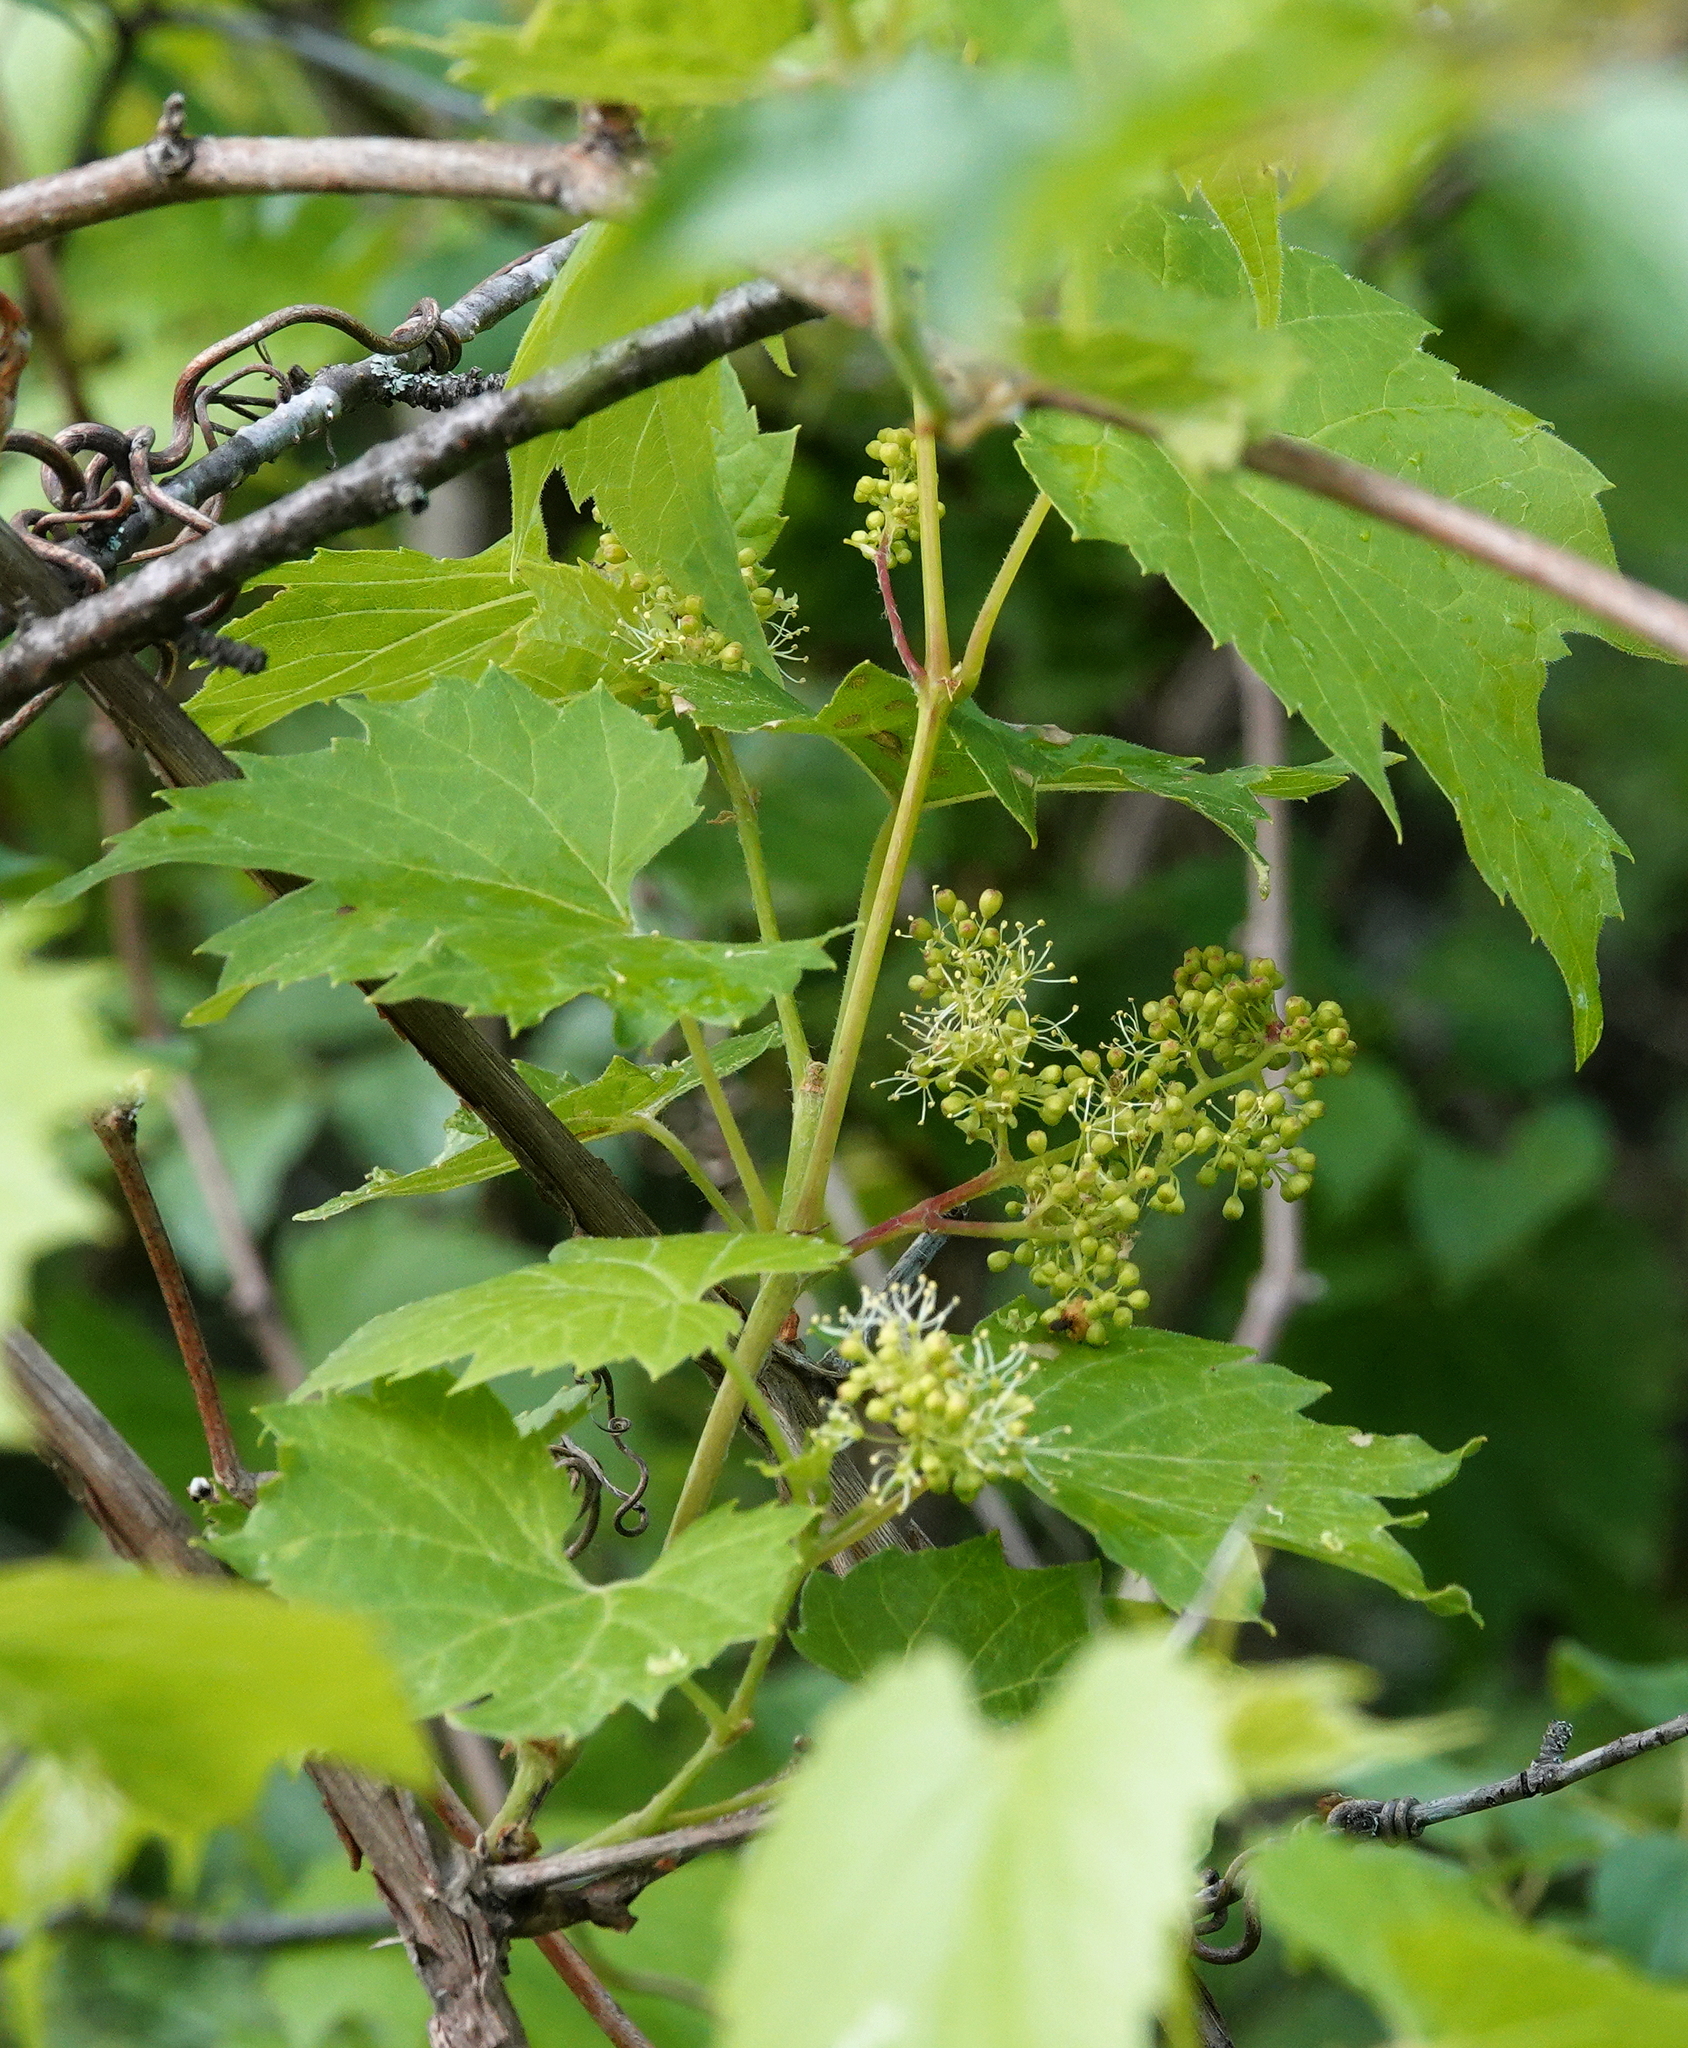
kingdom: Plantae
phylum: Tracheophyta
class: Magnoliopsida
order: Vitales
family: Vitaceae
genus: Vitis
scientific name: Vitis riparia
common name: Frost grape
